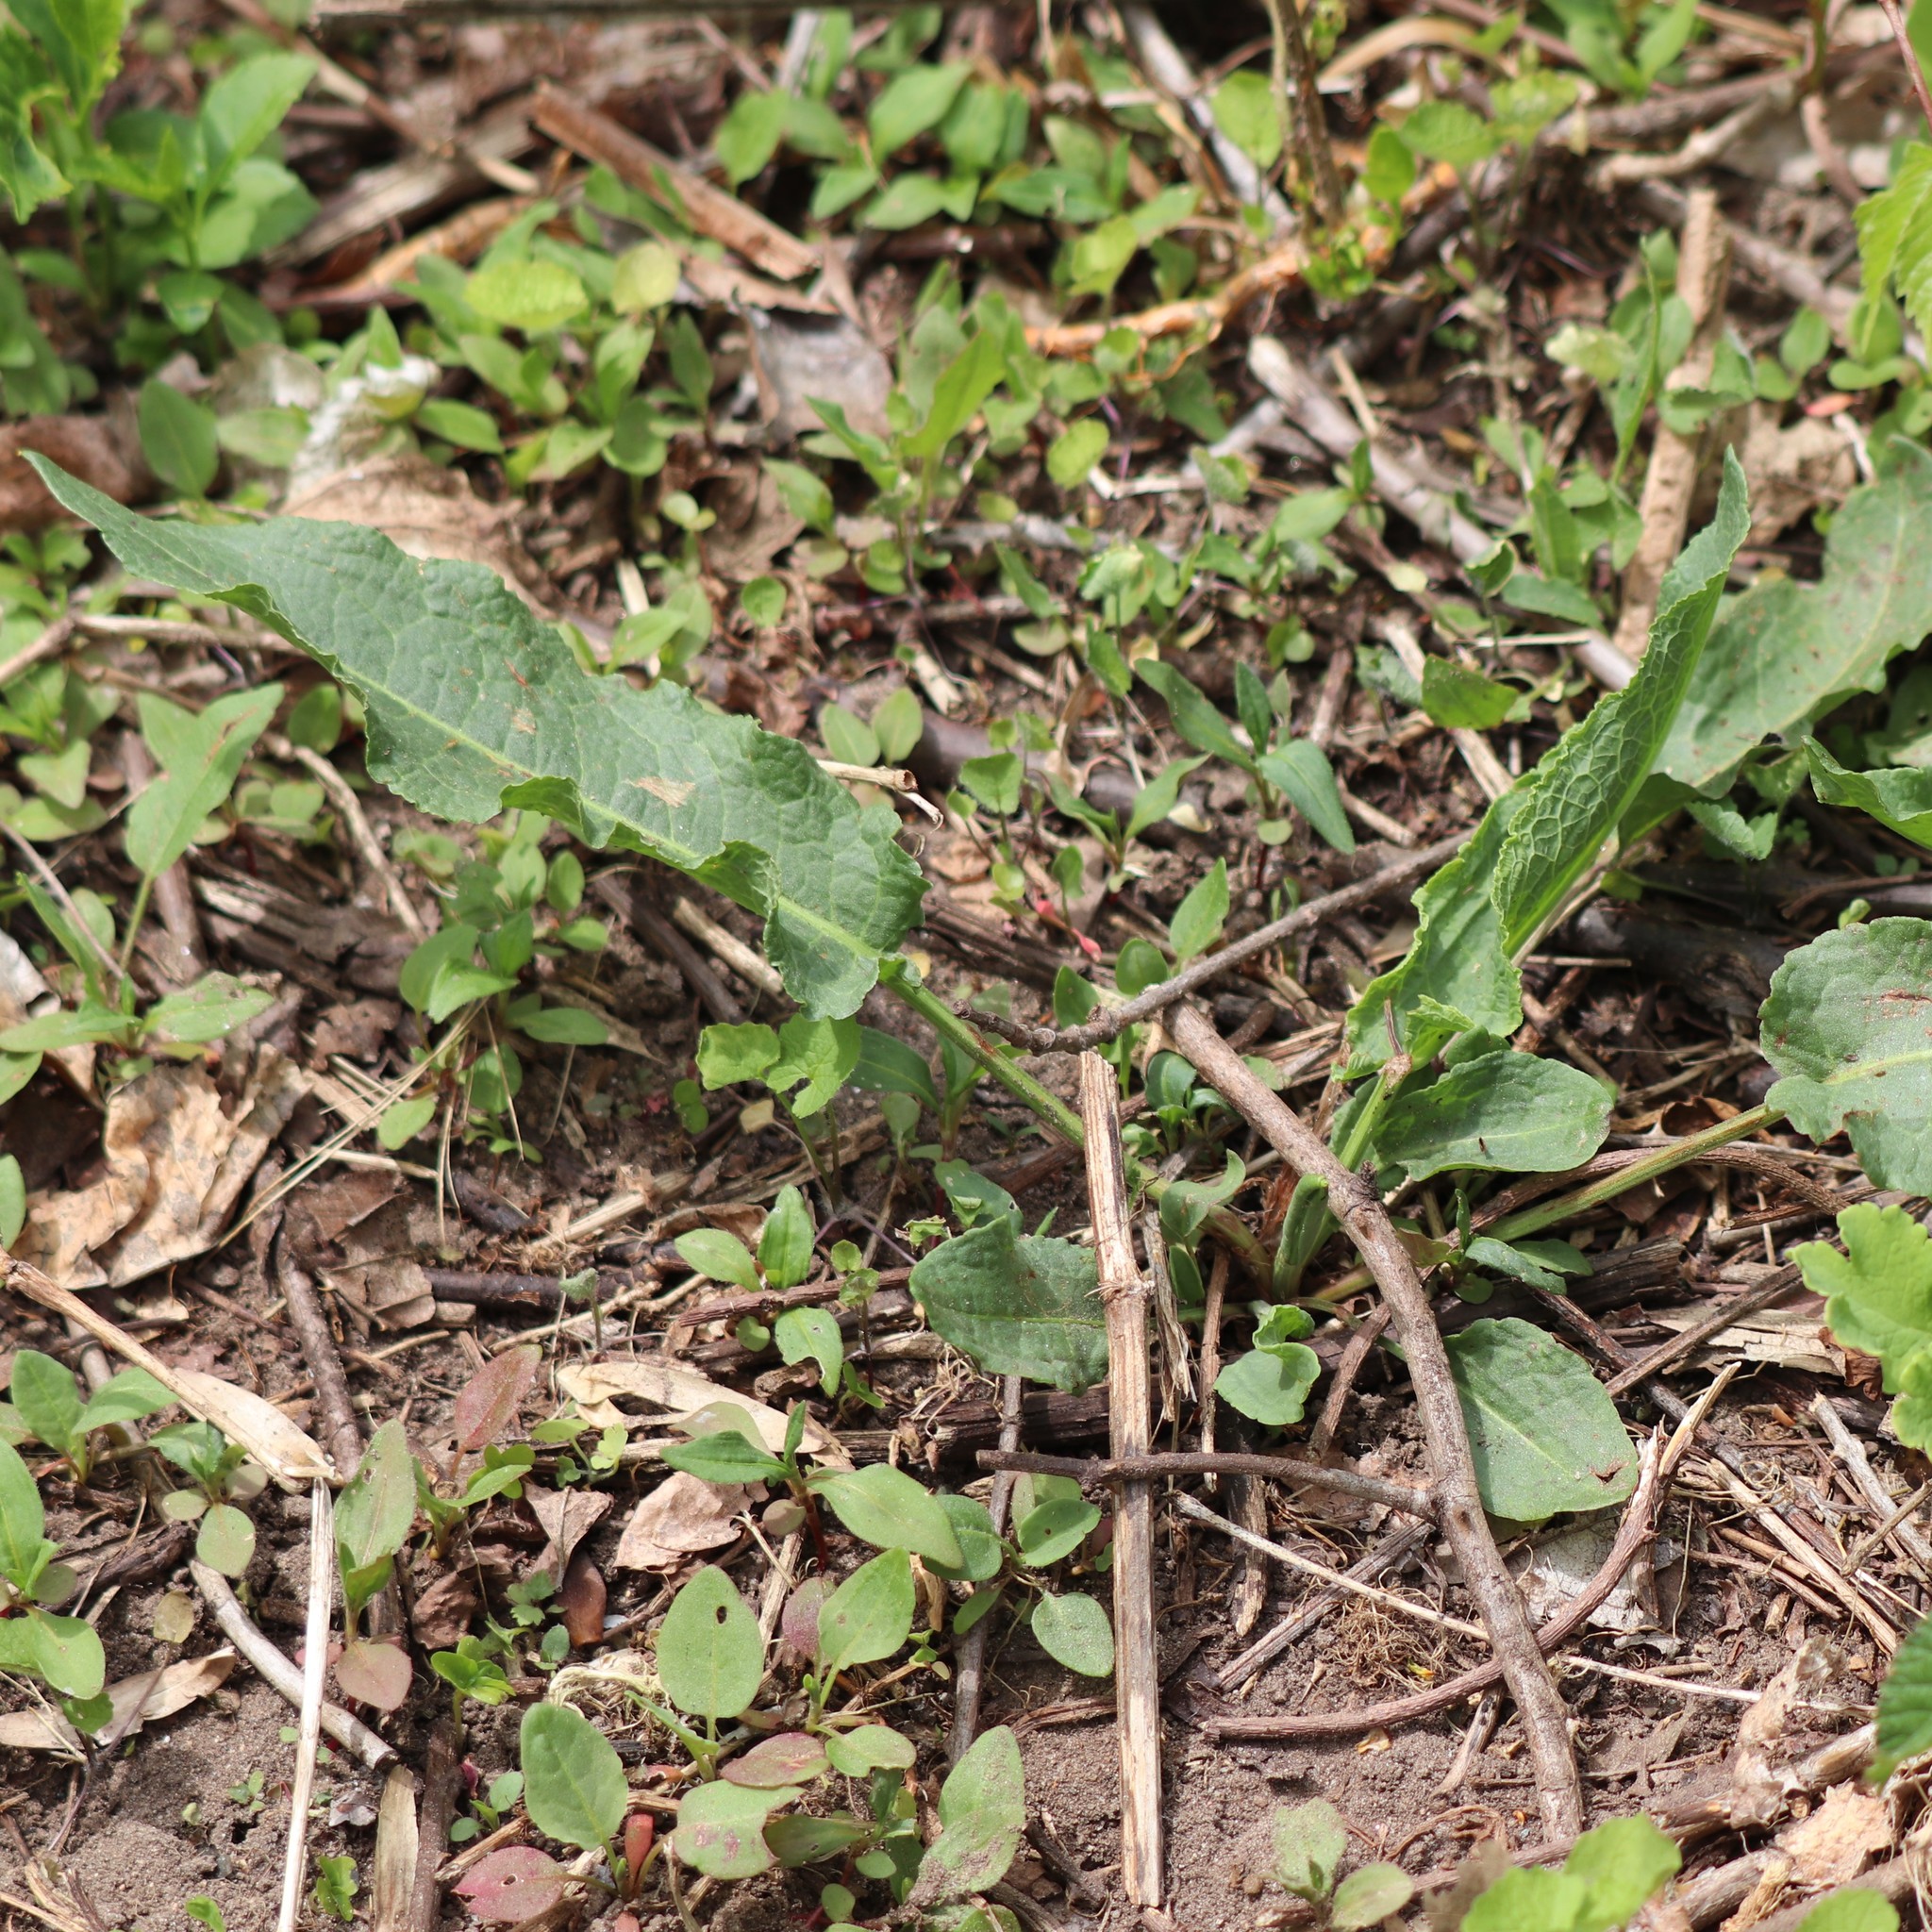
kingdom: Plantae
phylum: Tracheophyta
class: Magnoliopsida
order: Caryophyllales
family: Polygonaceae
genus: Rumex
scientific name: Rumex crispus
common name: Curled dock
